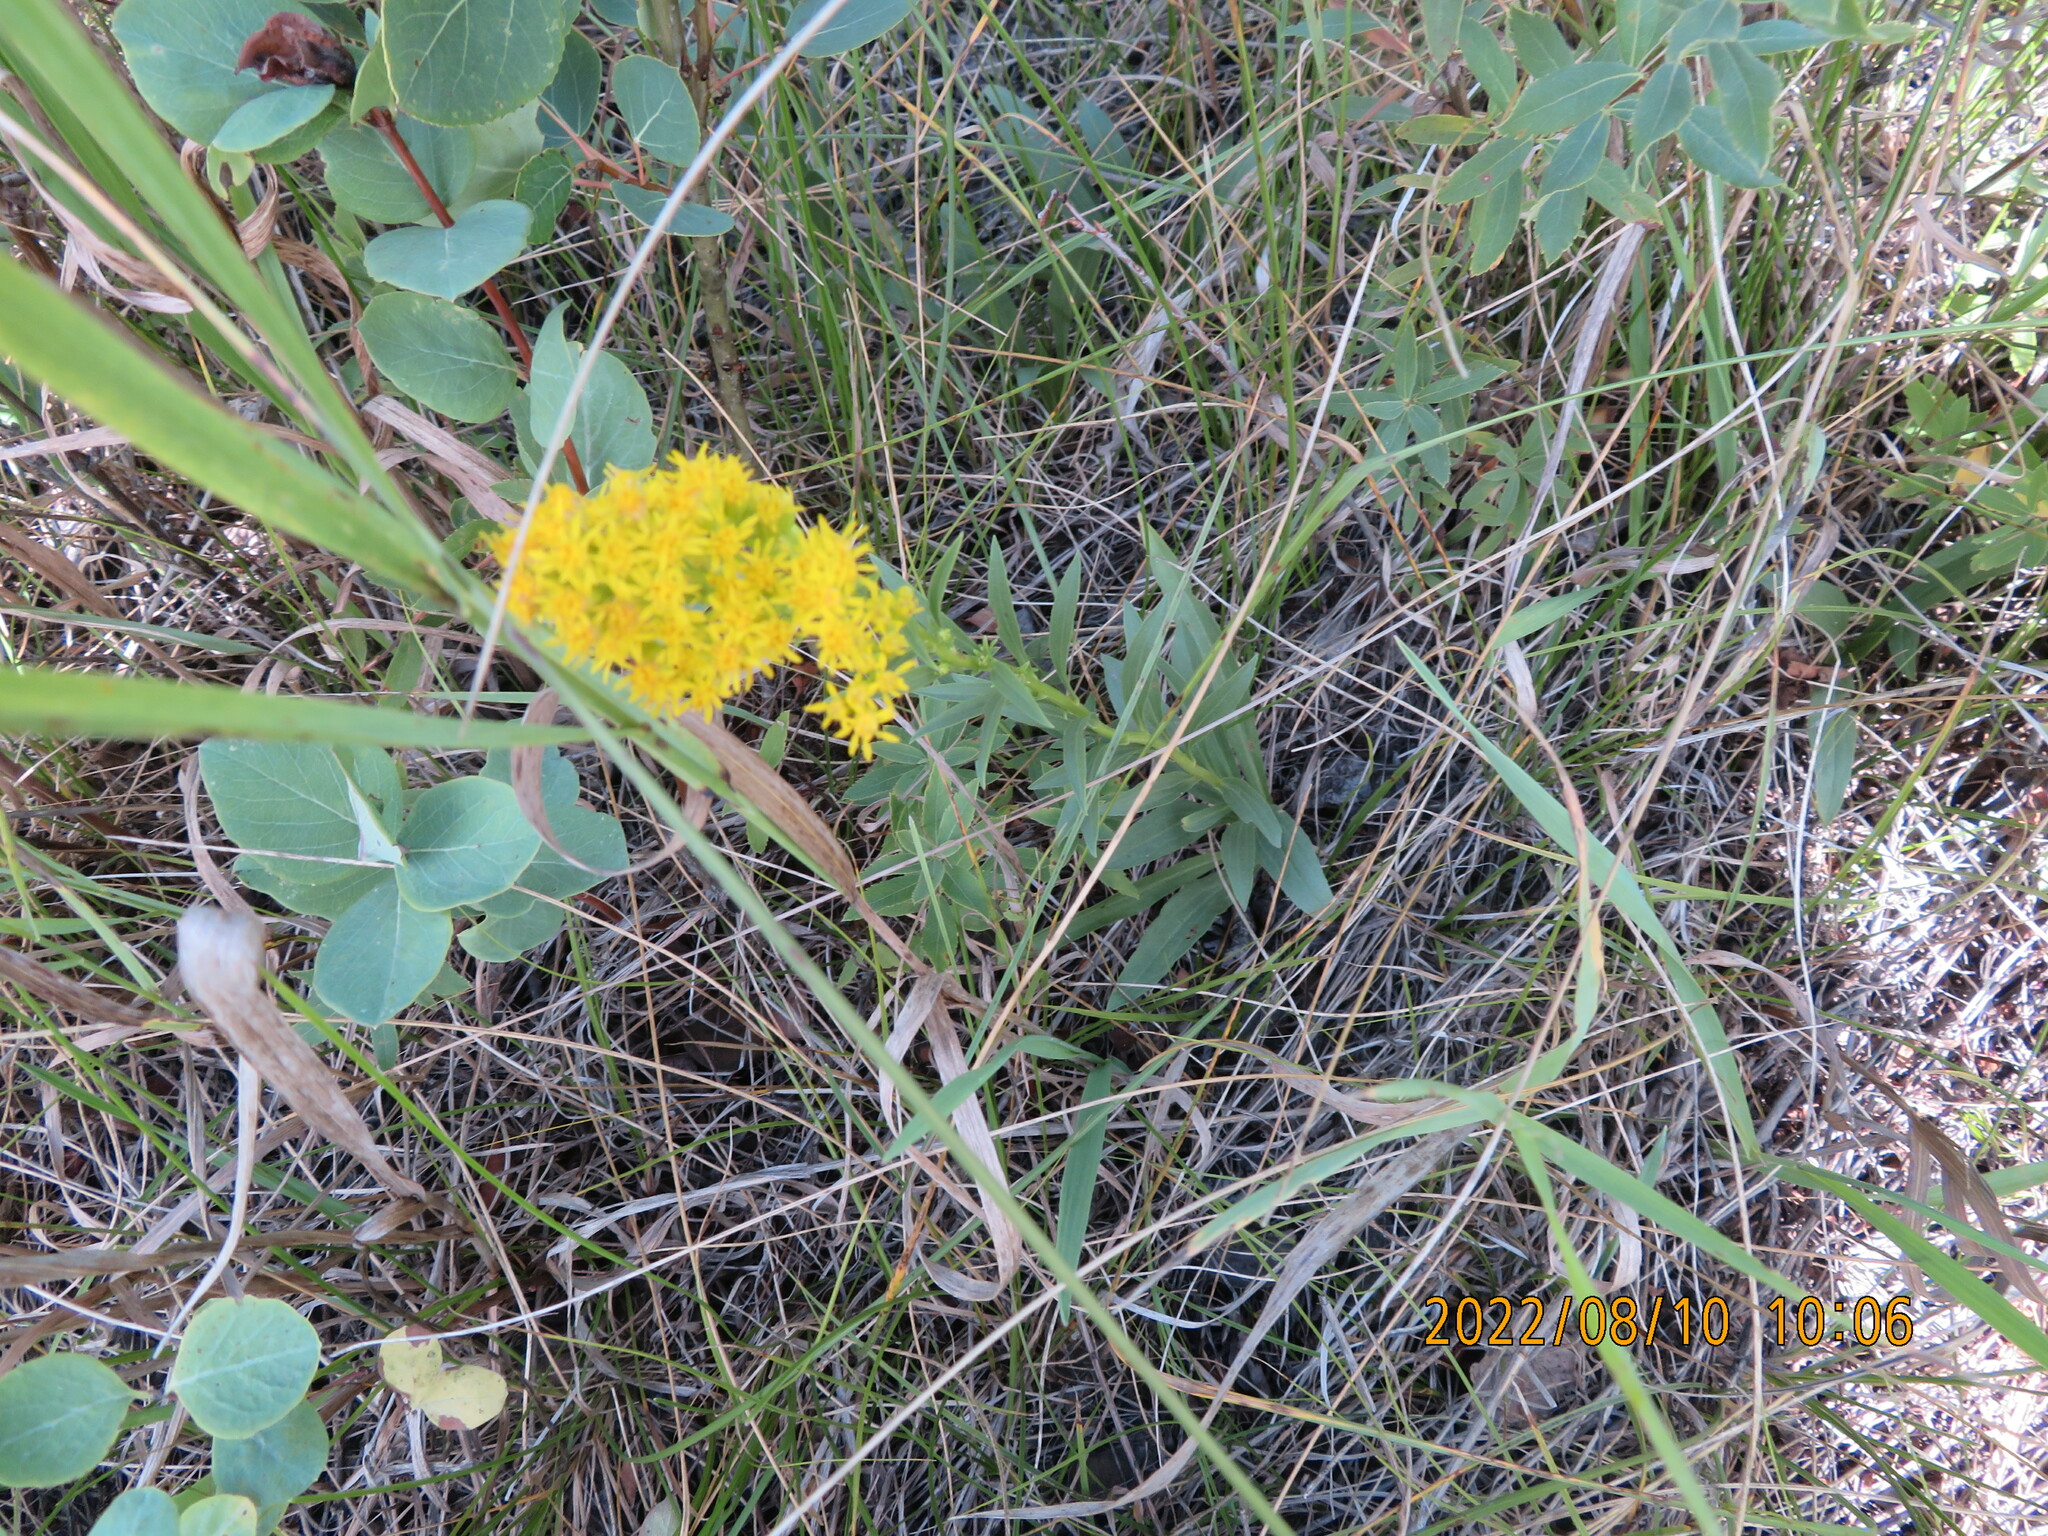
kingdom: Plantae
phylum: Tracheophyta
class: Magnoliopsida
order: Asterales
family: Asteraceae
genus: Solidago
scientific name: Solidago missouriensis
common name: Prairie goldenrod
